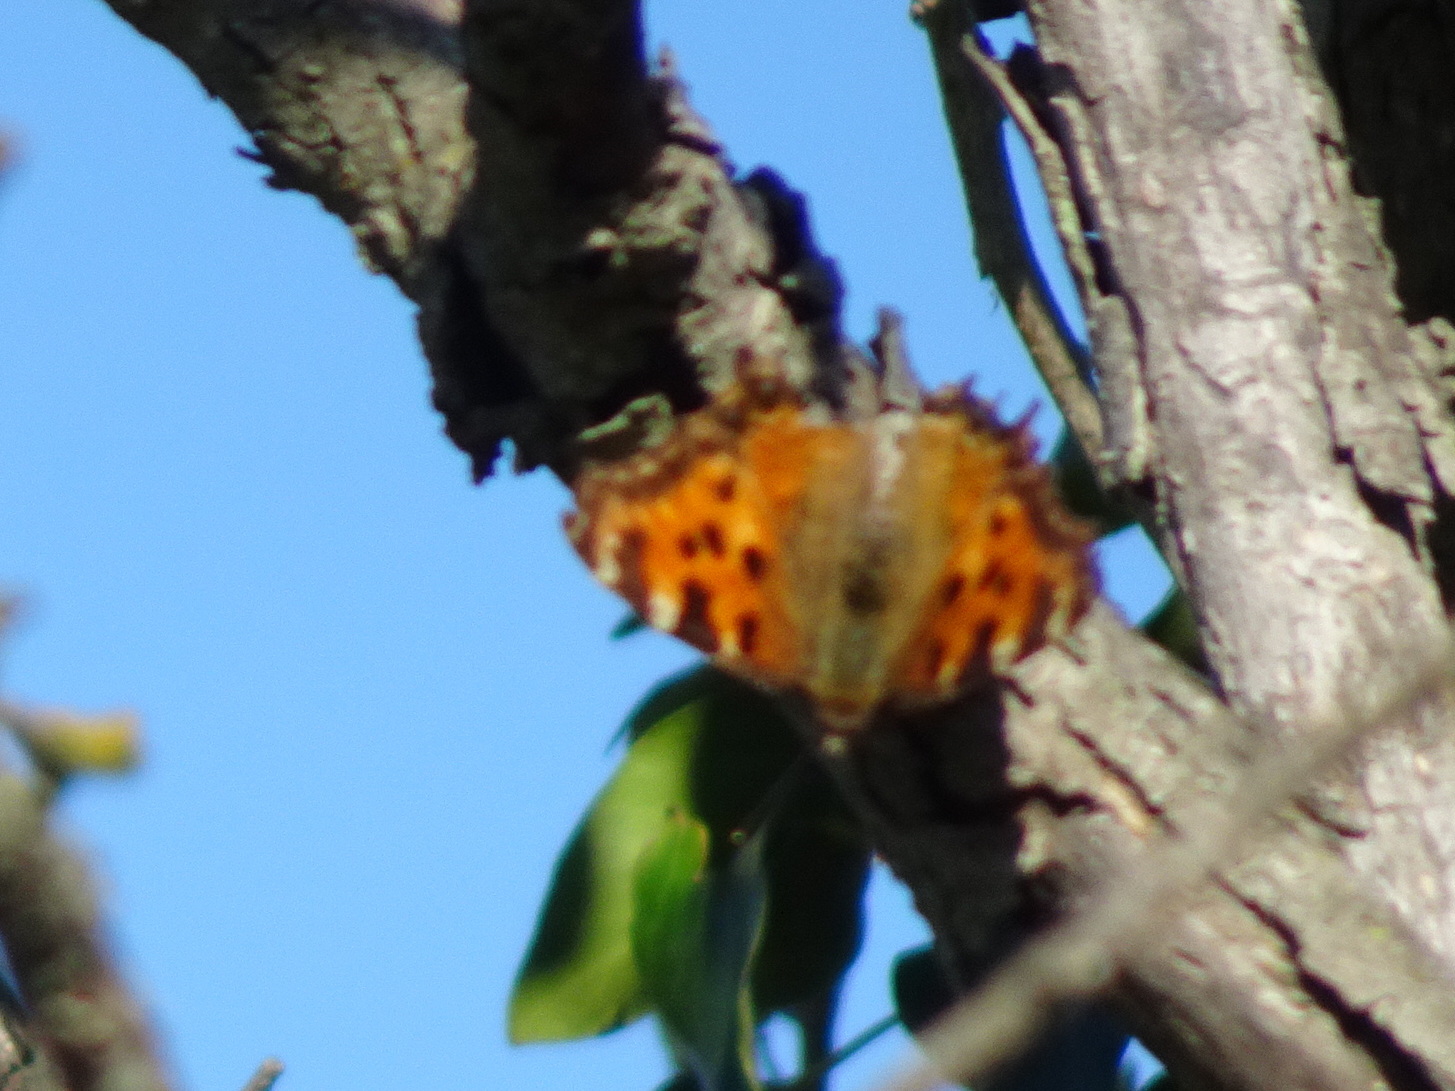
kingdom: Animalia
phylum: Arthropoda
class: Insecta
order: Lepidoptera
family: Nymphalidae
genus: Nymphalis
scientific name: Nymphalis polychloros
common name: Large tortoiseshell
